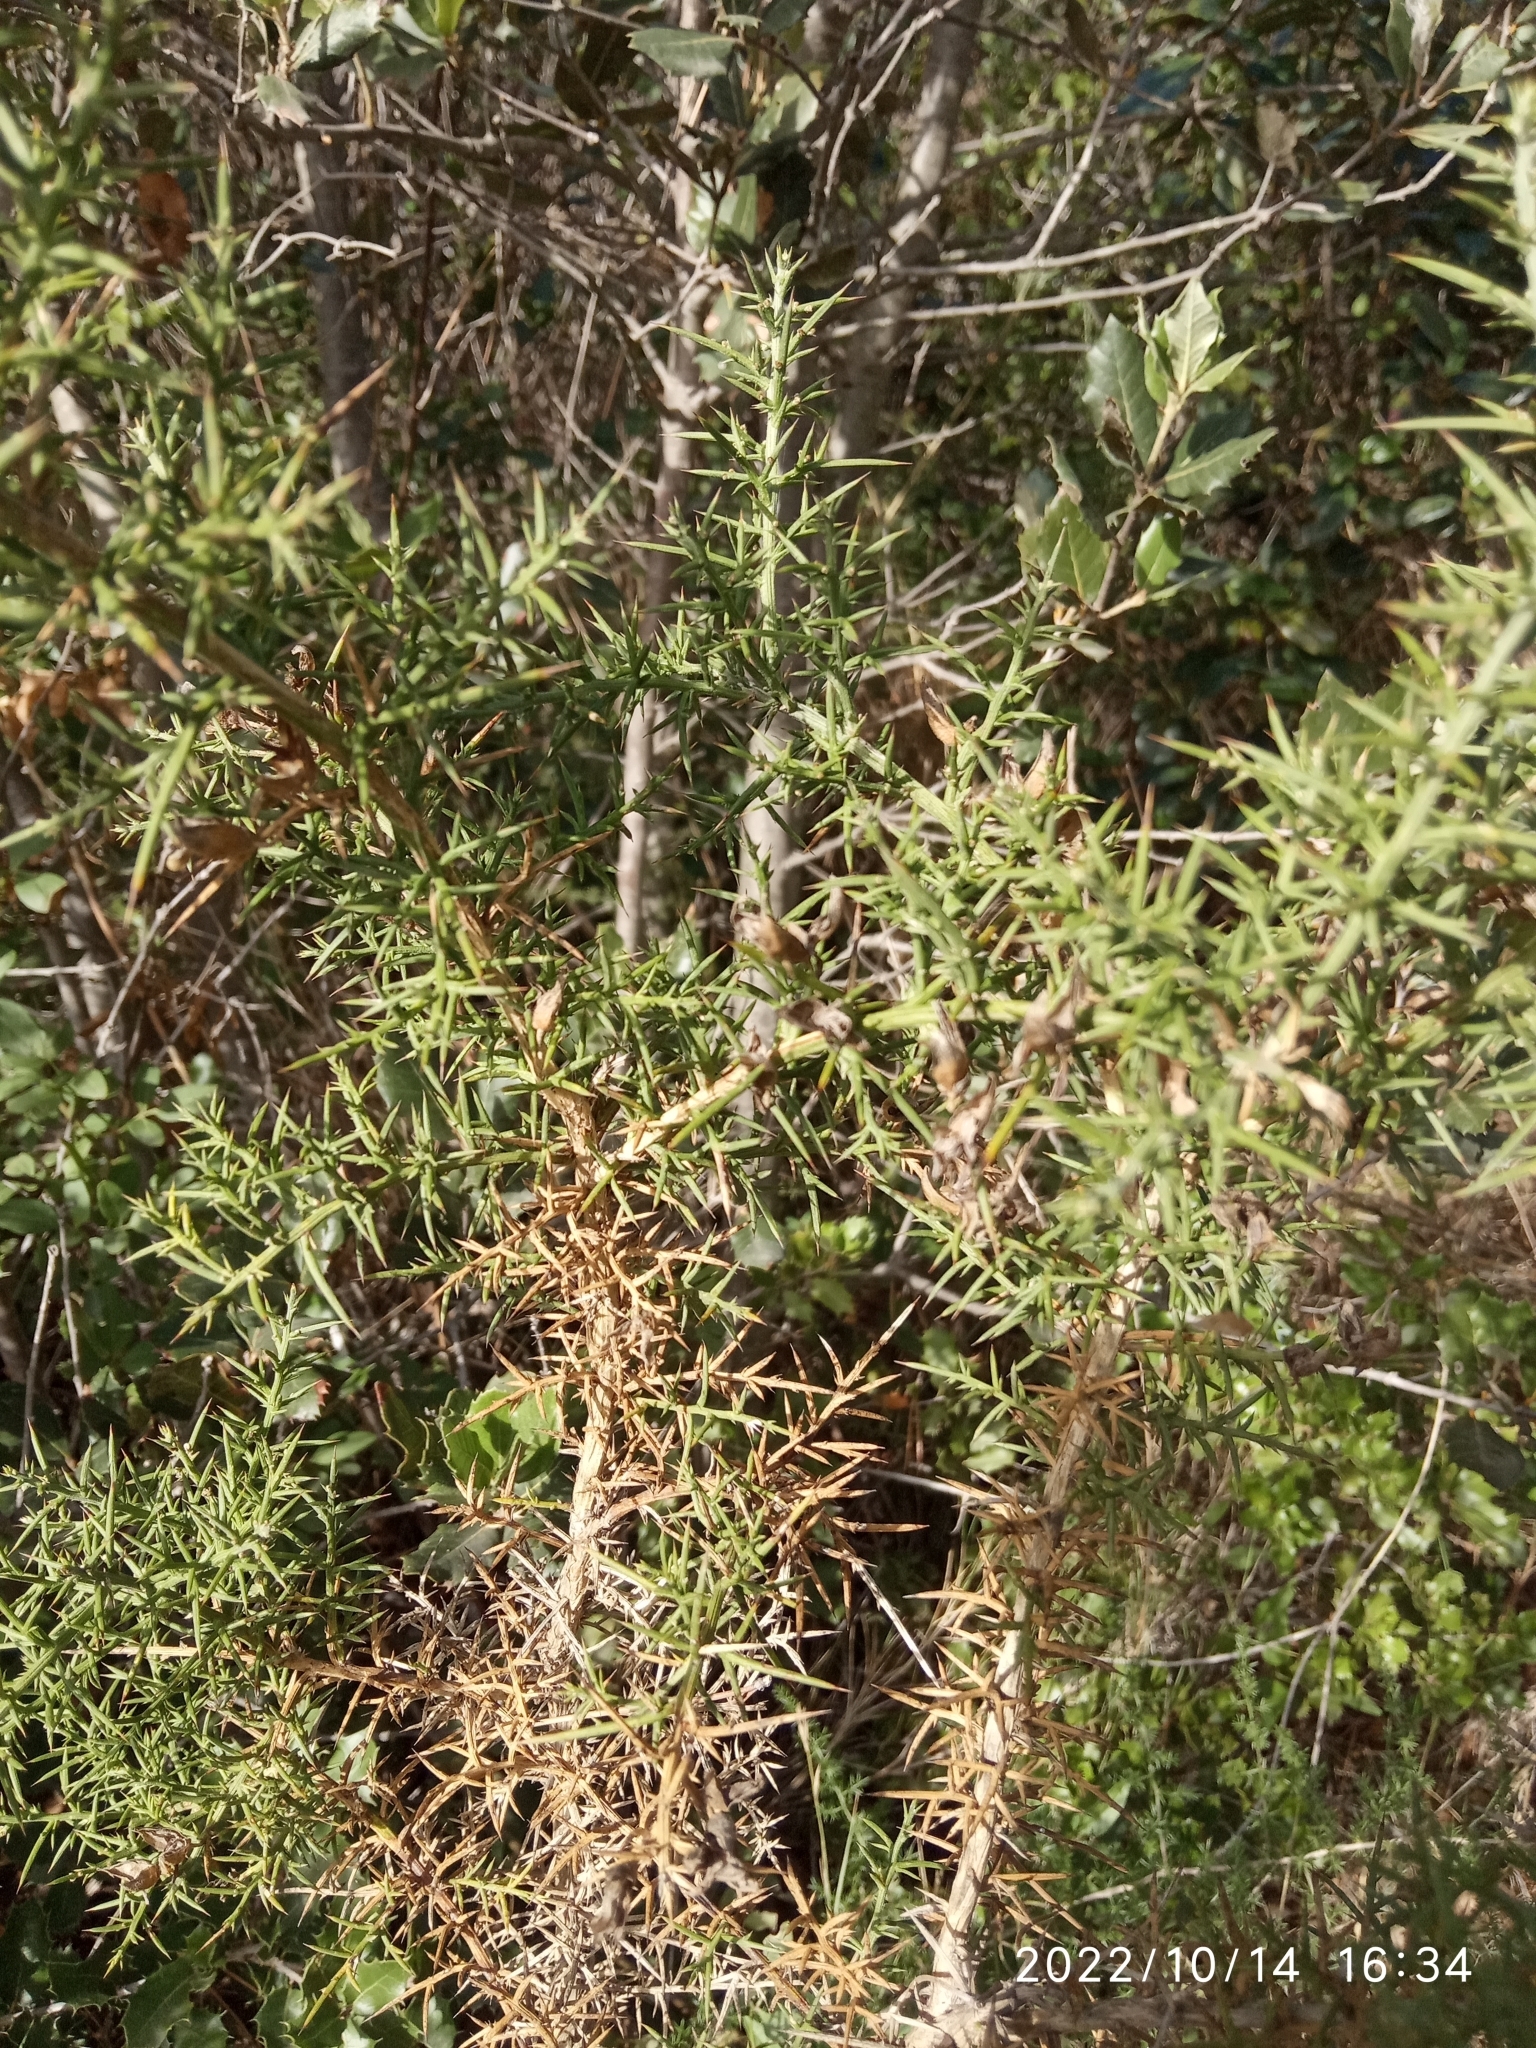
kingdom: Plantae
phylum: Tracheophyta
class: Magnoliopsida
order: Fabales
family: Fabaceae
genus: Ulex
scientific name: Ulex parviflorus
